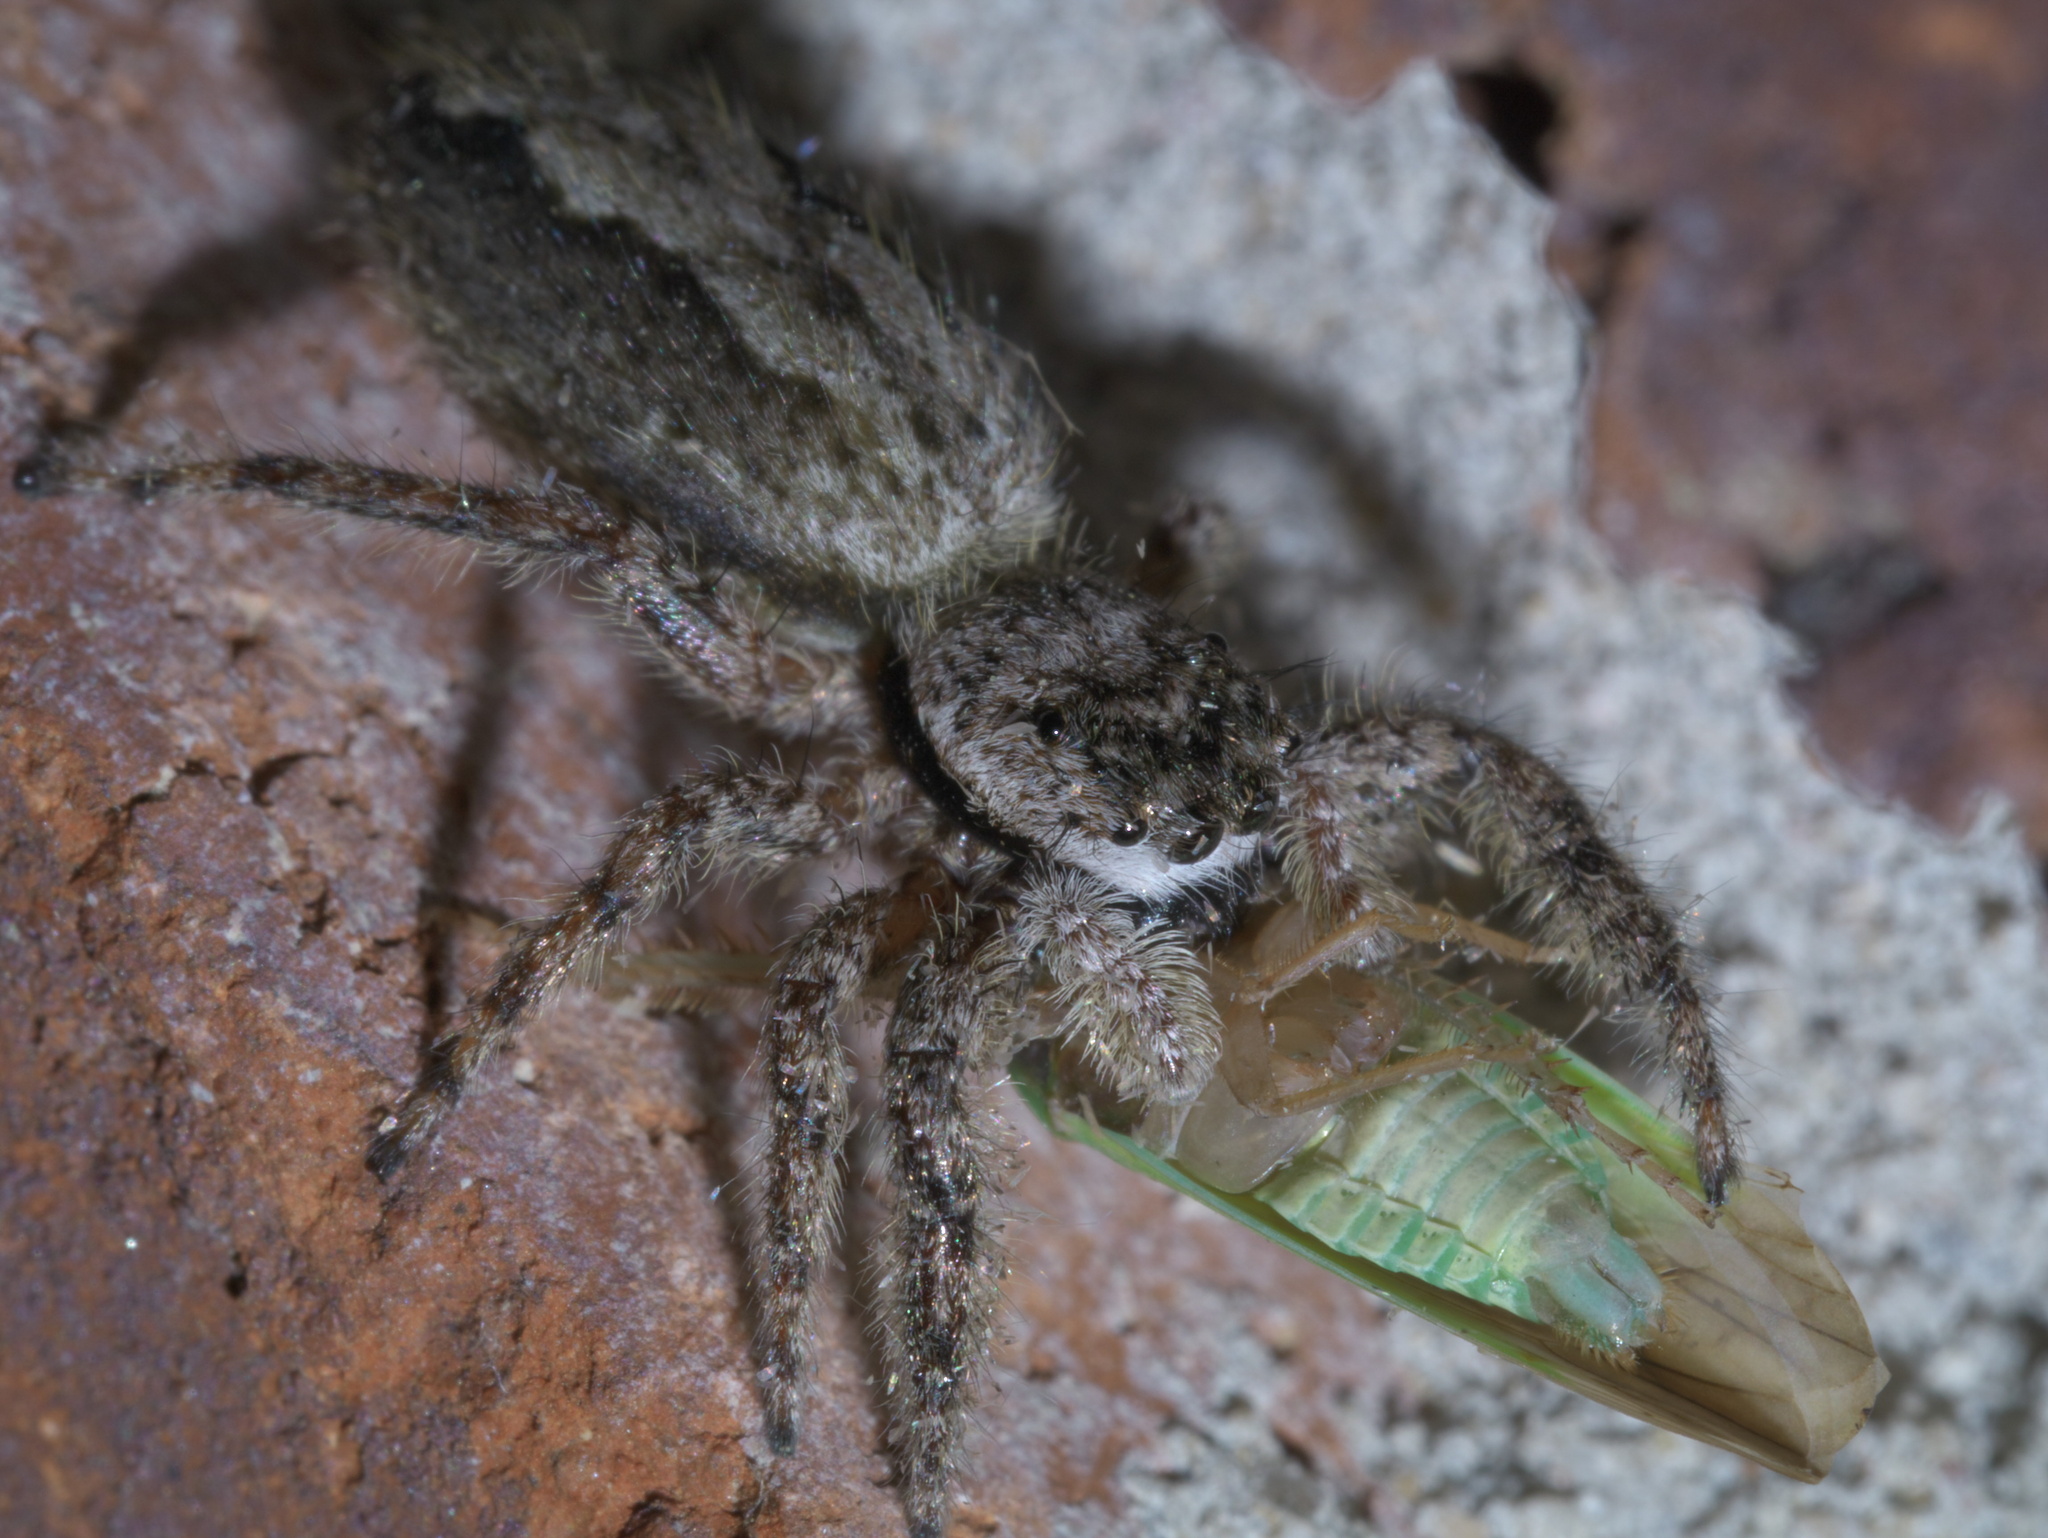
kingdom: Animalia
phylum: Arthropoda
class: Arachnida
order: Araneae
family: Salticidae
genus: Platycryptus
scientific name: Platycryptus undatus
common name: Tan jumping spider
